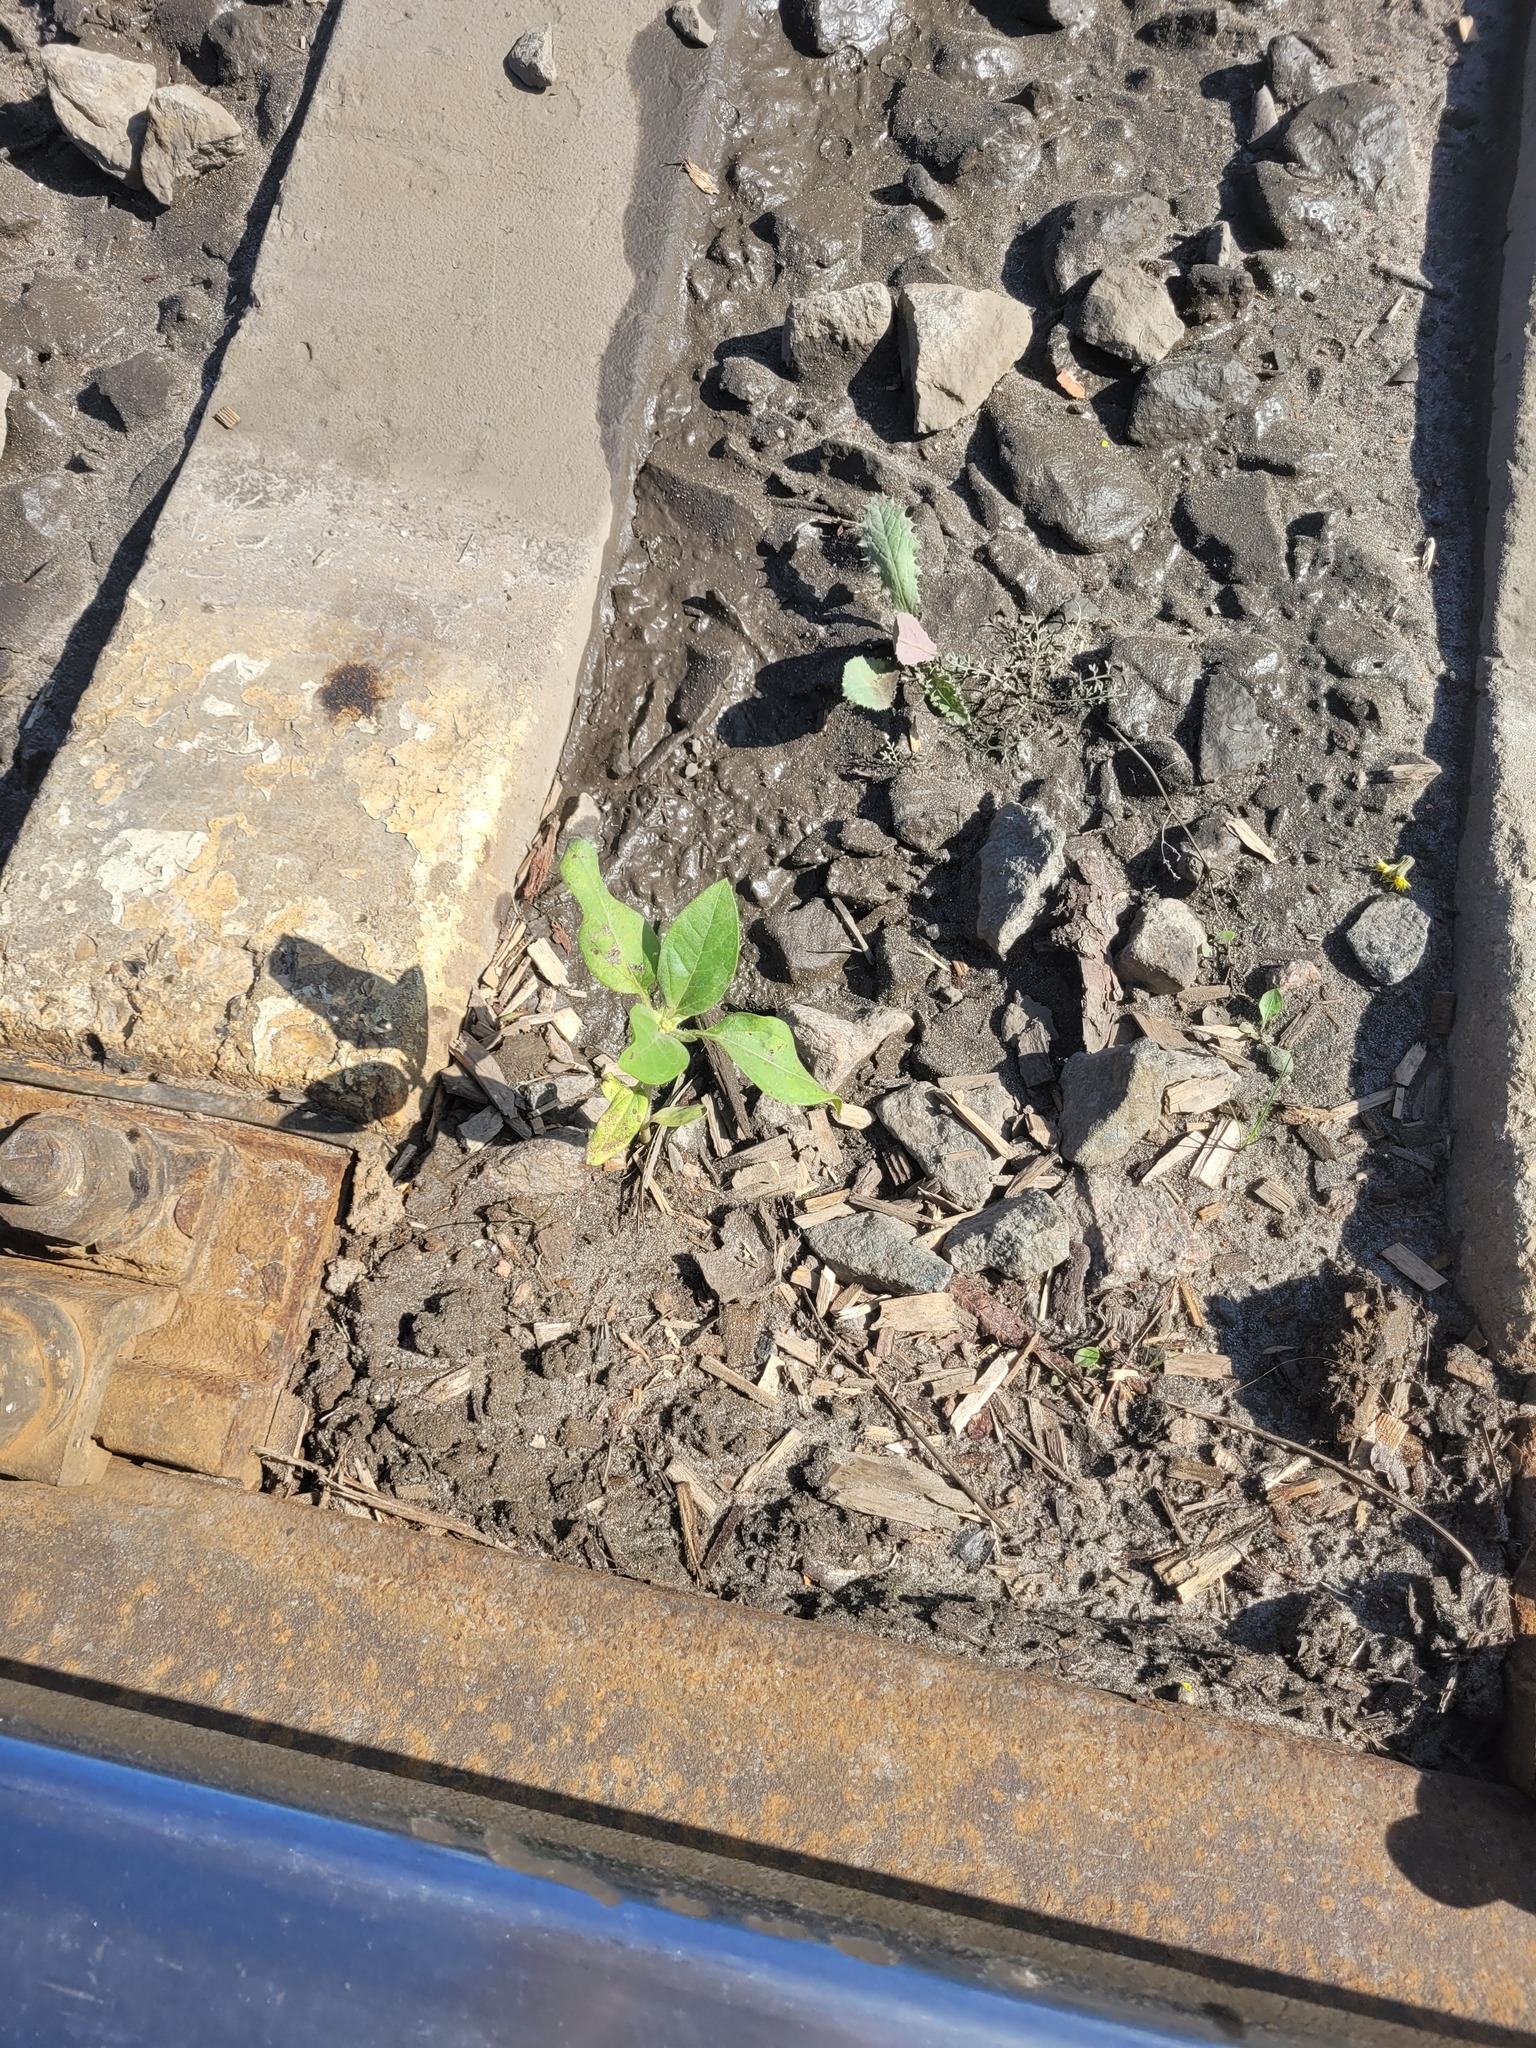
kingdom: Plantae
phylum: Tracheophyta
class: Magnoliopsida
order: Asterales
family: Asteraceae
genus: Helianthus
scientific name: Helianthus annuus
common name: Sunflower
